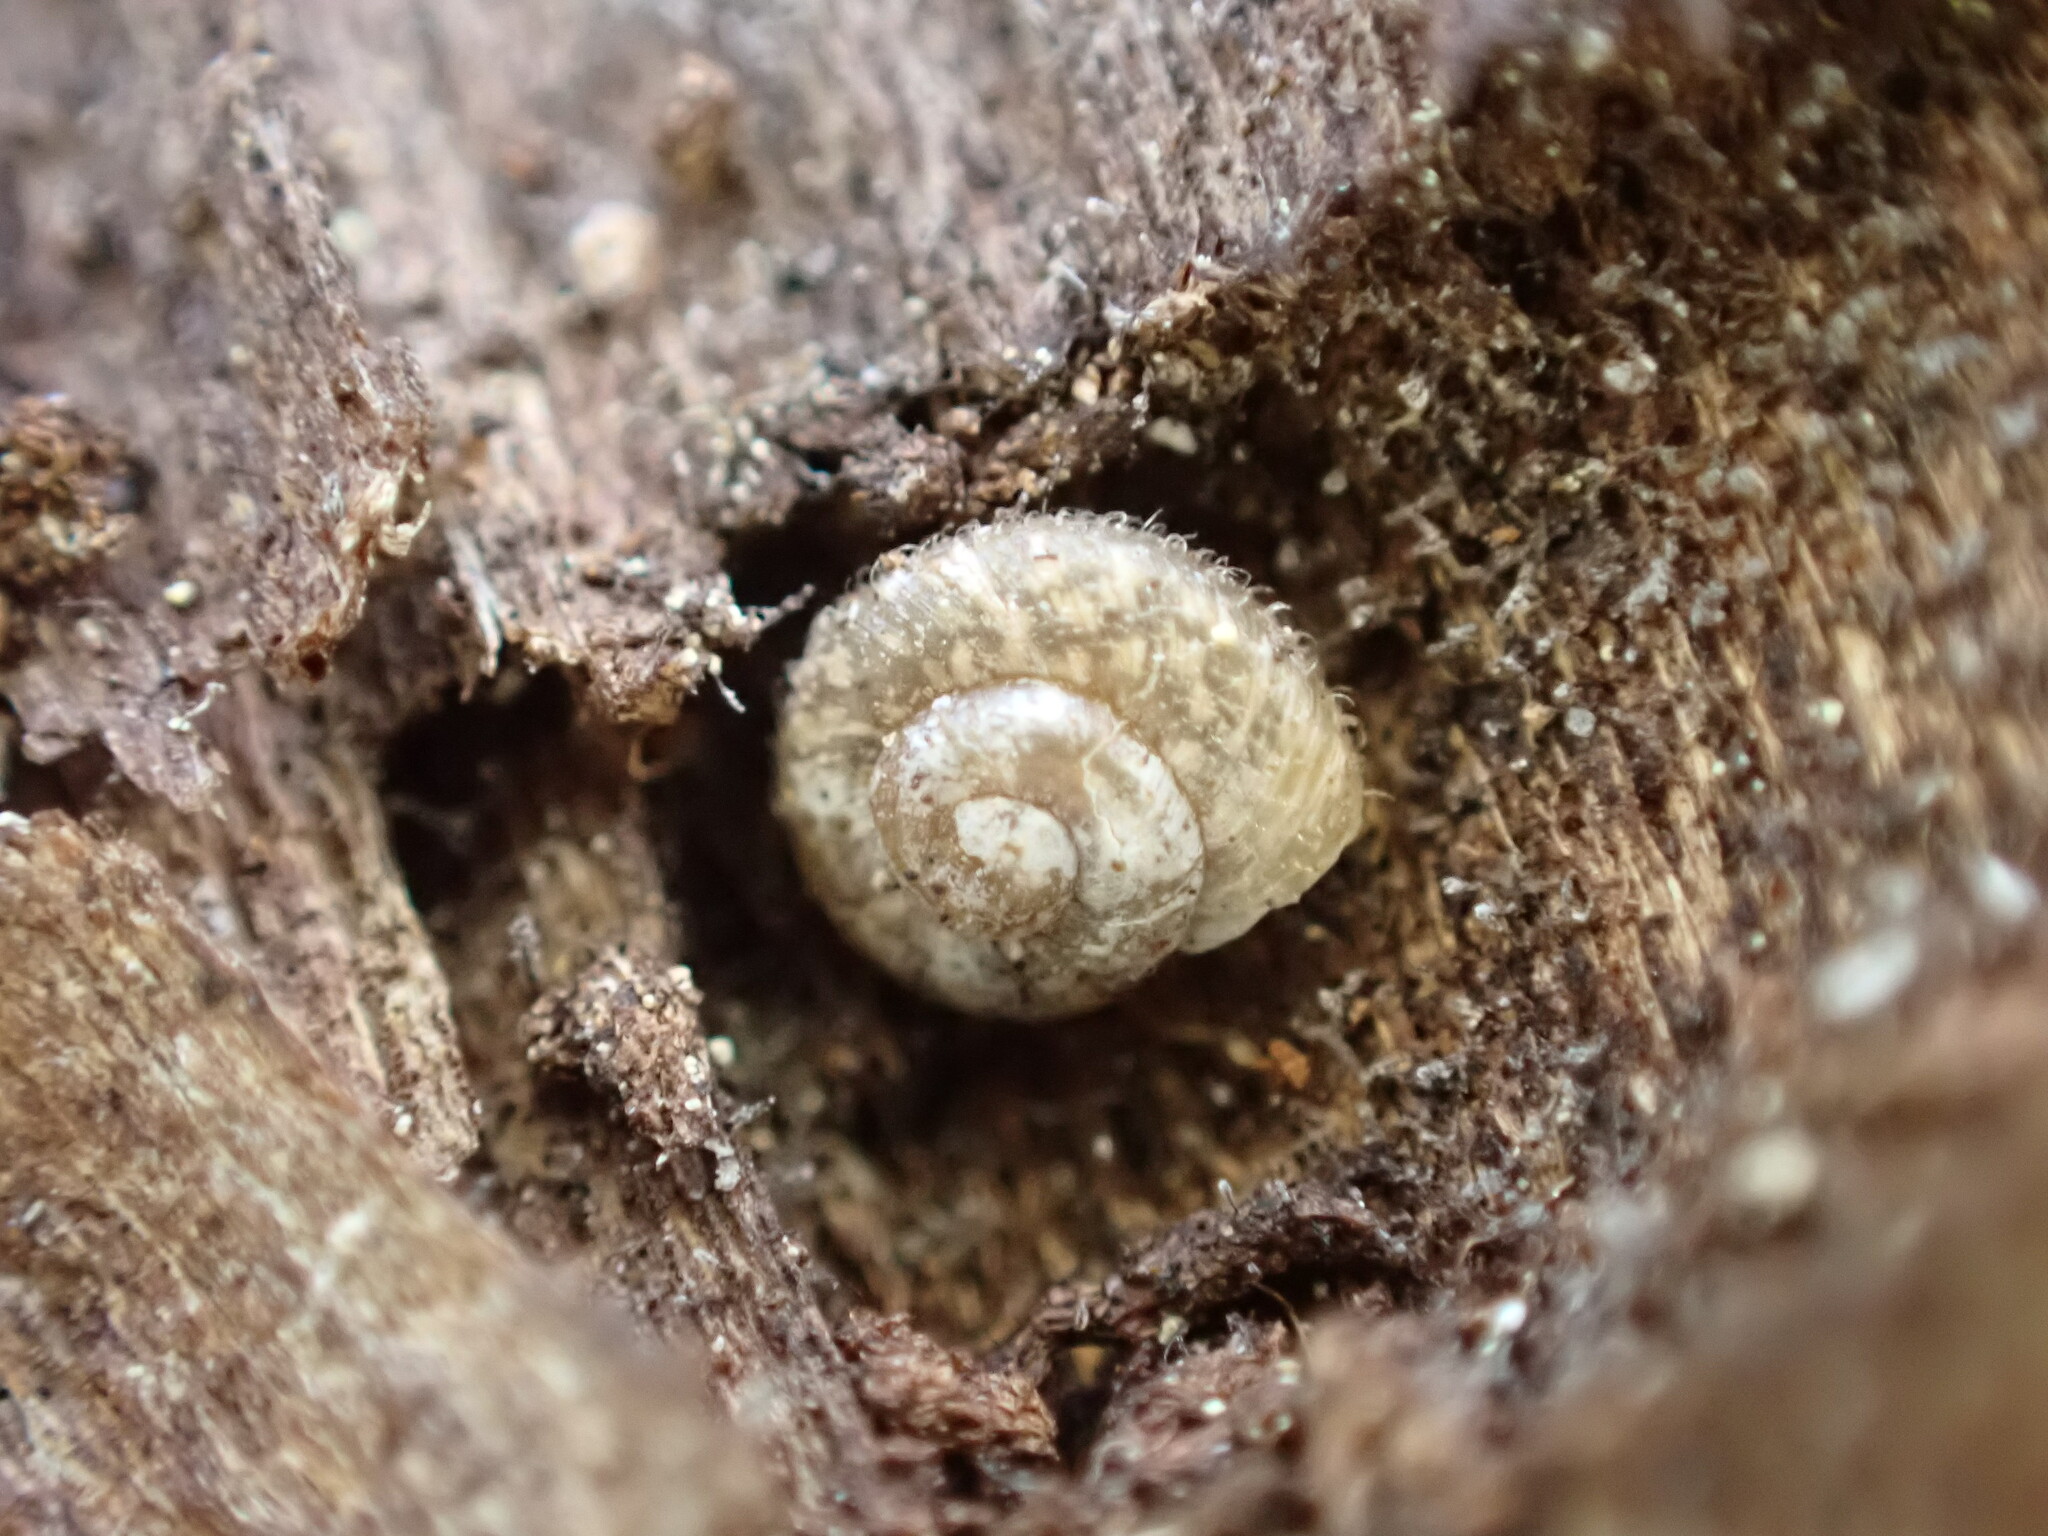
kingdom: Animalia
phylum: Mollusca
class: Gastropoda
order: Stylommatophora
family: Geomitridae
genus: Xerotricha
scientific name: Xerotricha conspurcata
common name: Snail
